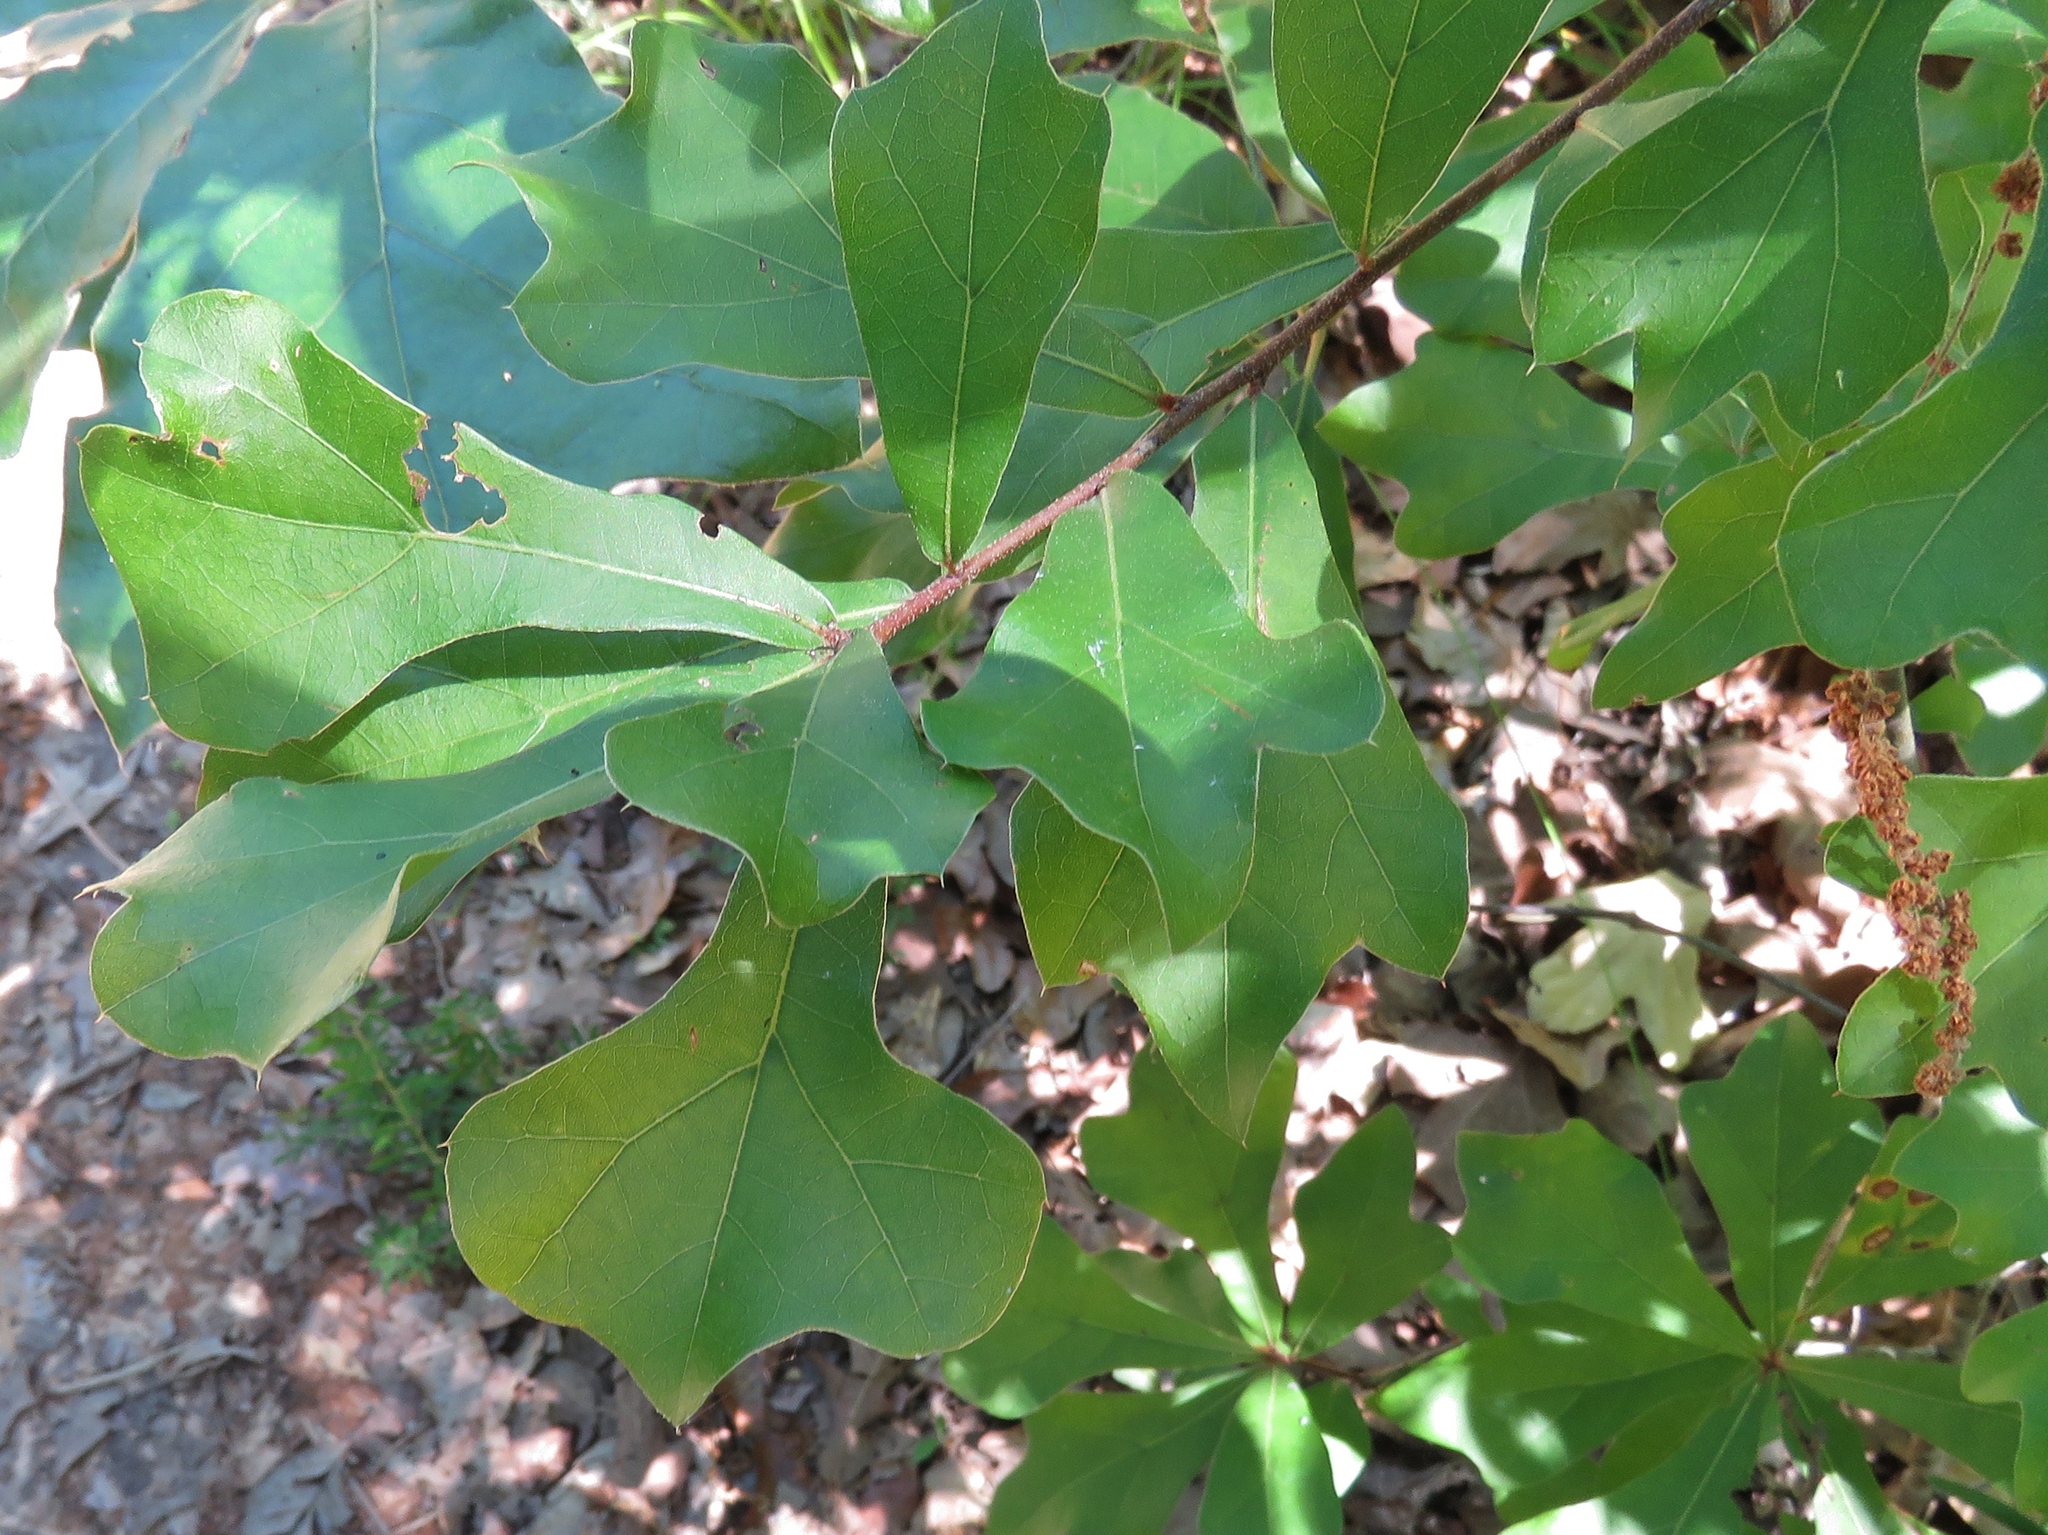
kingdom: Plantae
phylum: Tracheophyta
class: Magnoliopsida
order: Fagales
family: Fagaceae
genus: Quercus
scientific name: Quercus nigra
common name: Water oak
